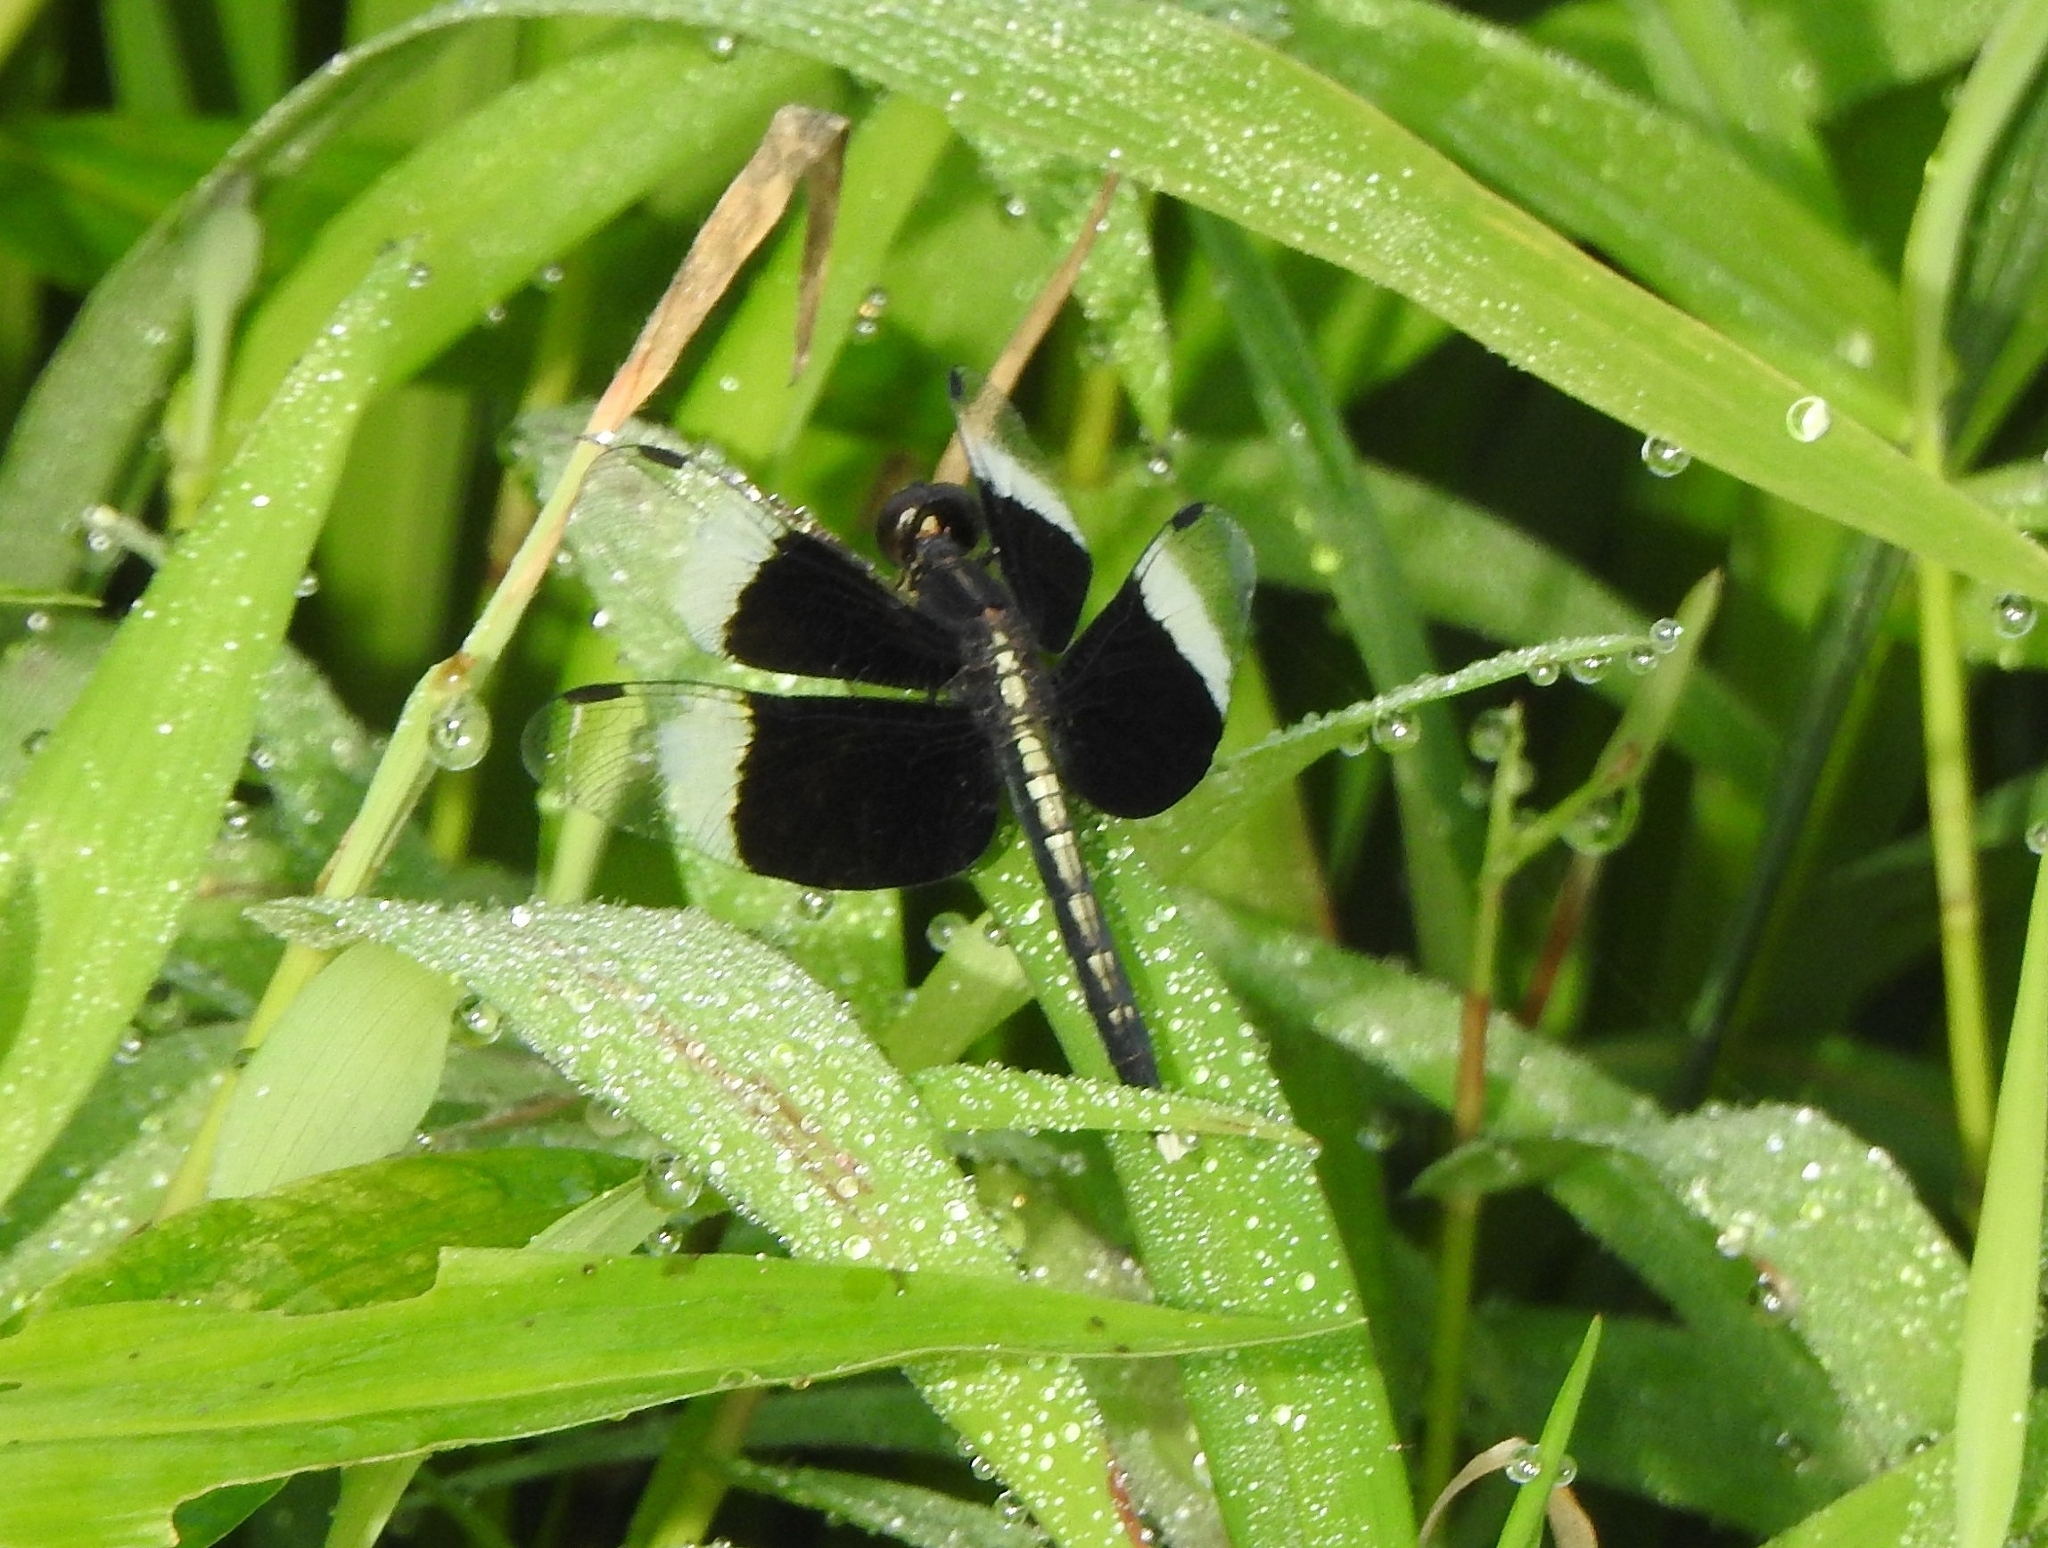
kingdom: Animalia
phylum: Arthropoda
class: Insecta
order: Odonata
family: Libellulidae
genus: Neurothemis
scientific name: Neurothemis tullia
